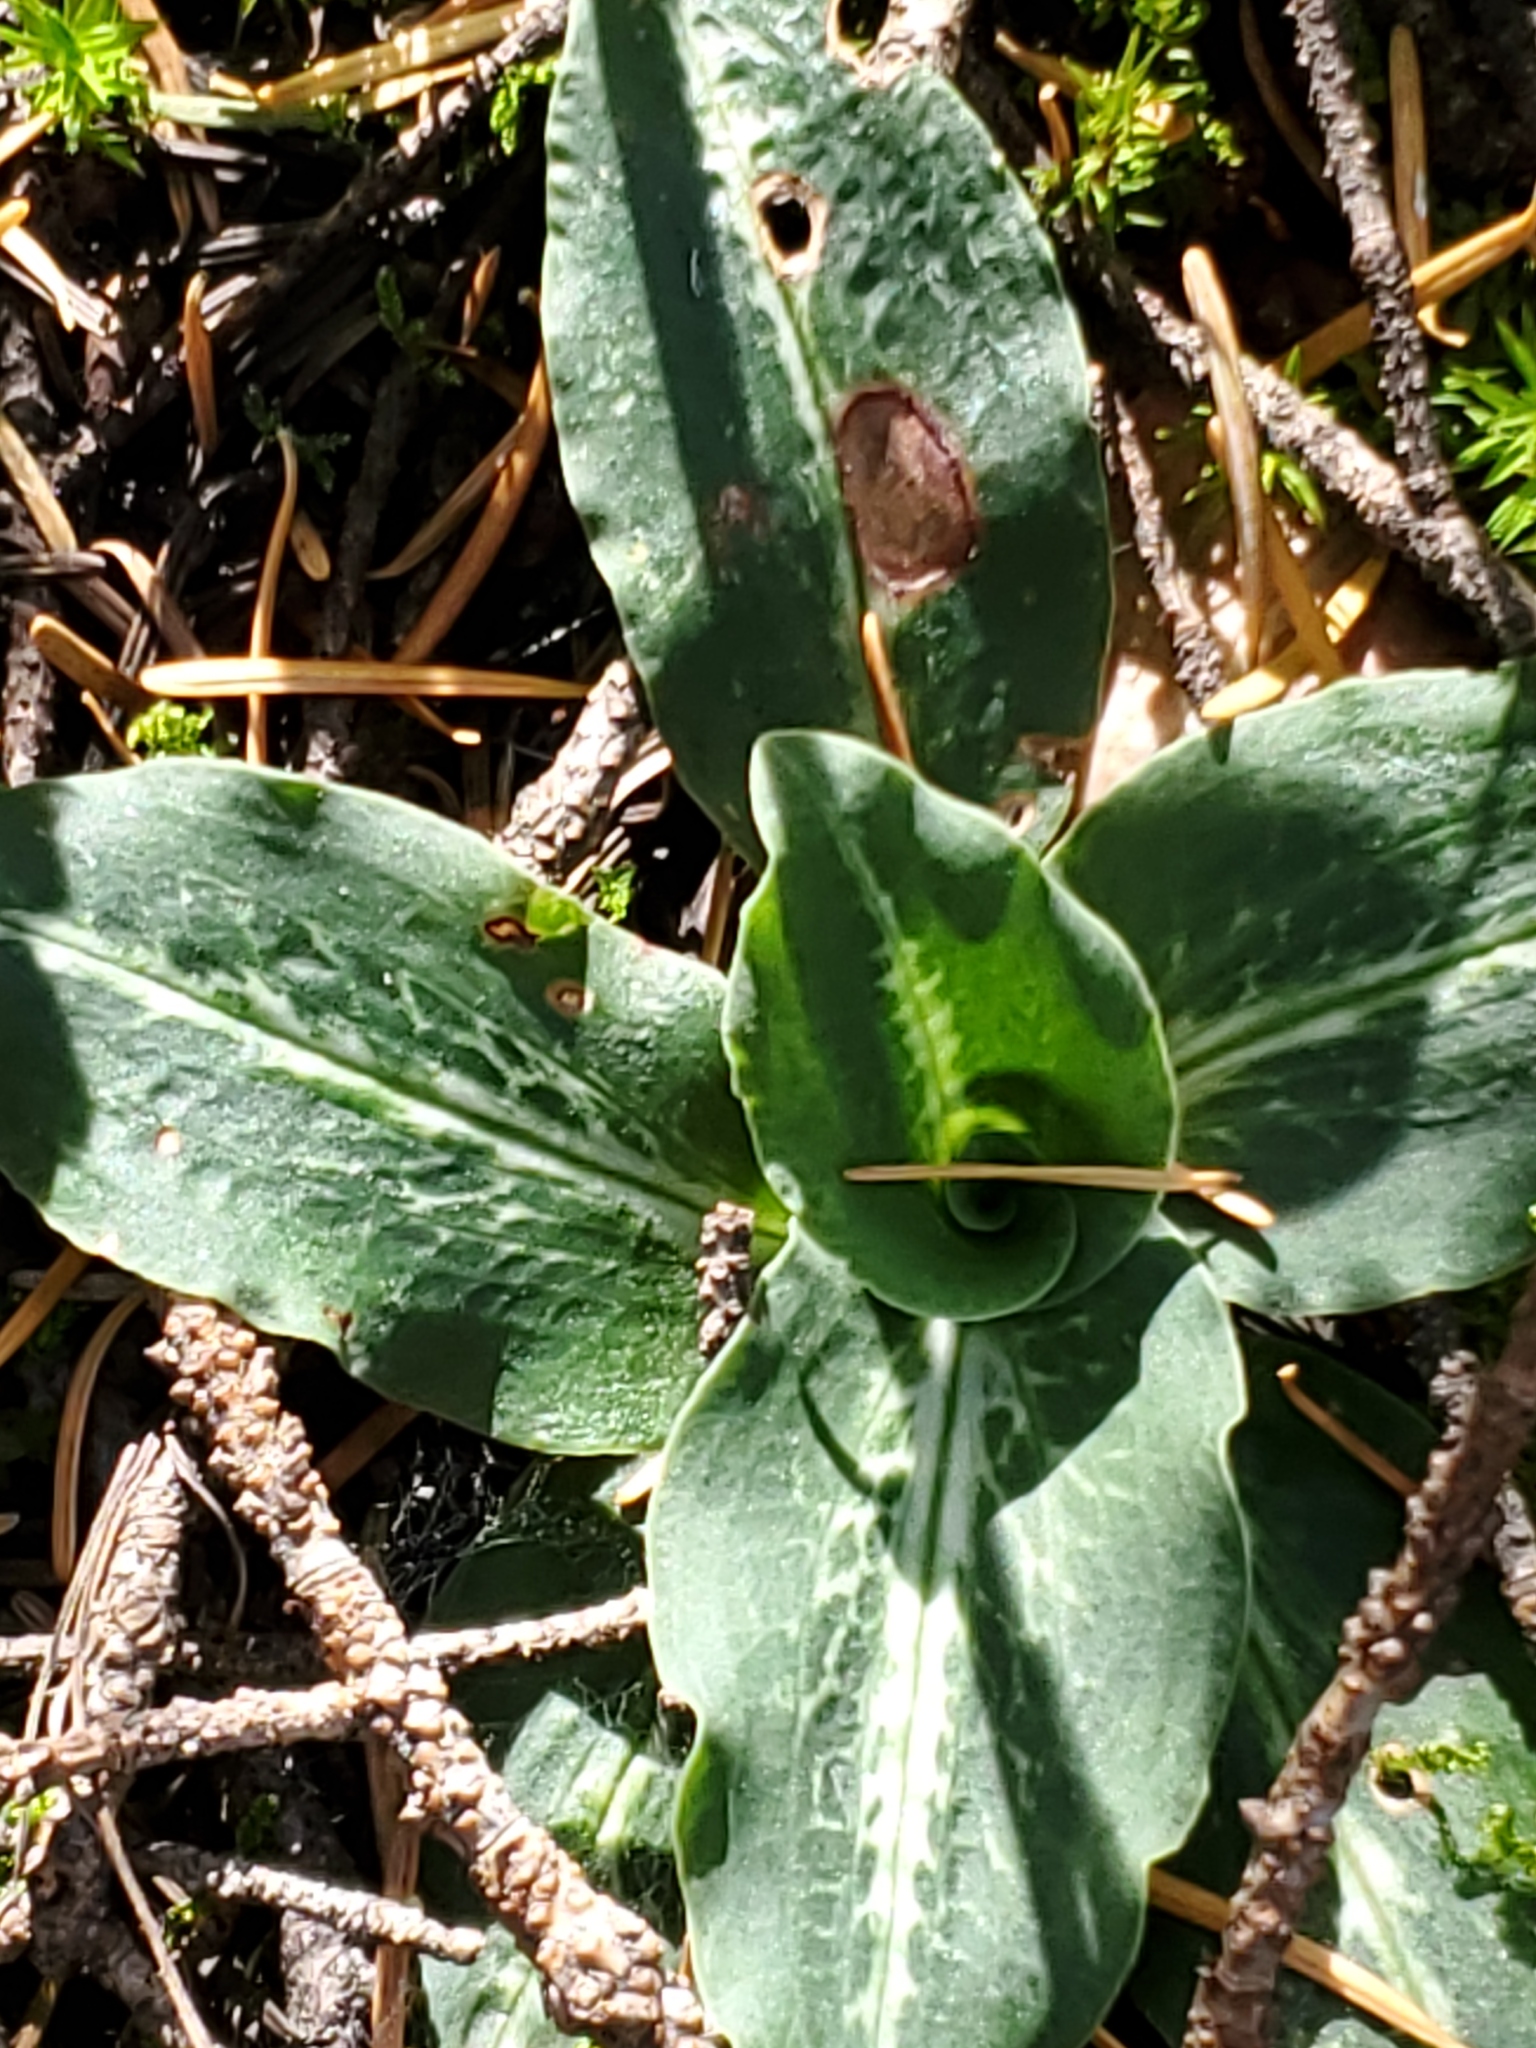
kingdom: Plantae
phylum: Tracheophyta
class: Liliopsida
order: Asparagales
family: Orchidaceae
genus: Goodyera
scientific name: Goodyera oblongifolia
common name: Giant rattlesnake-plantain
